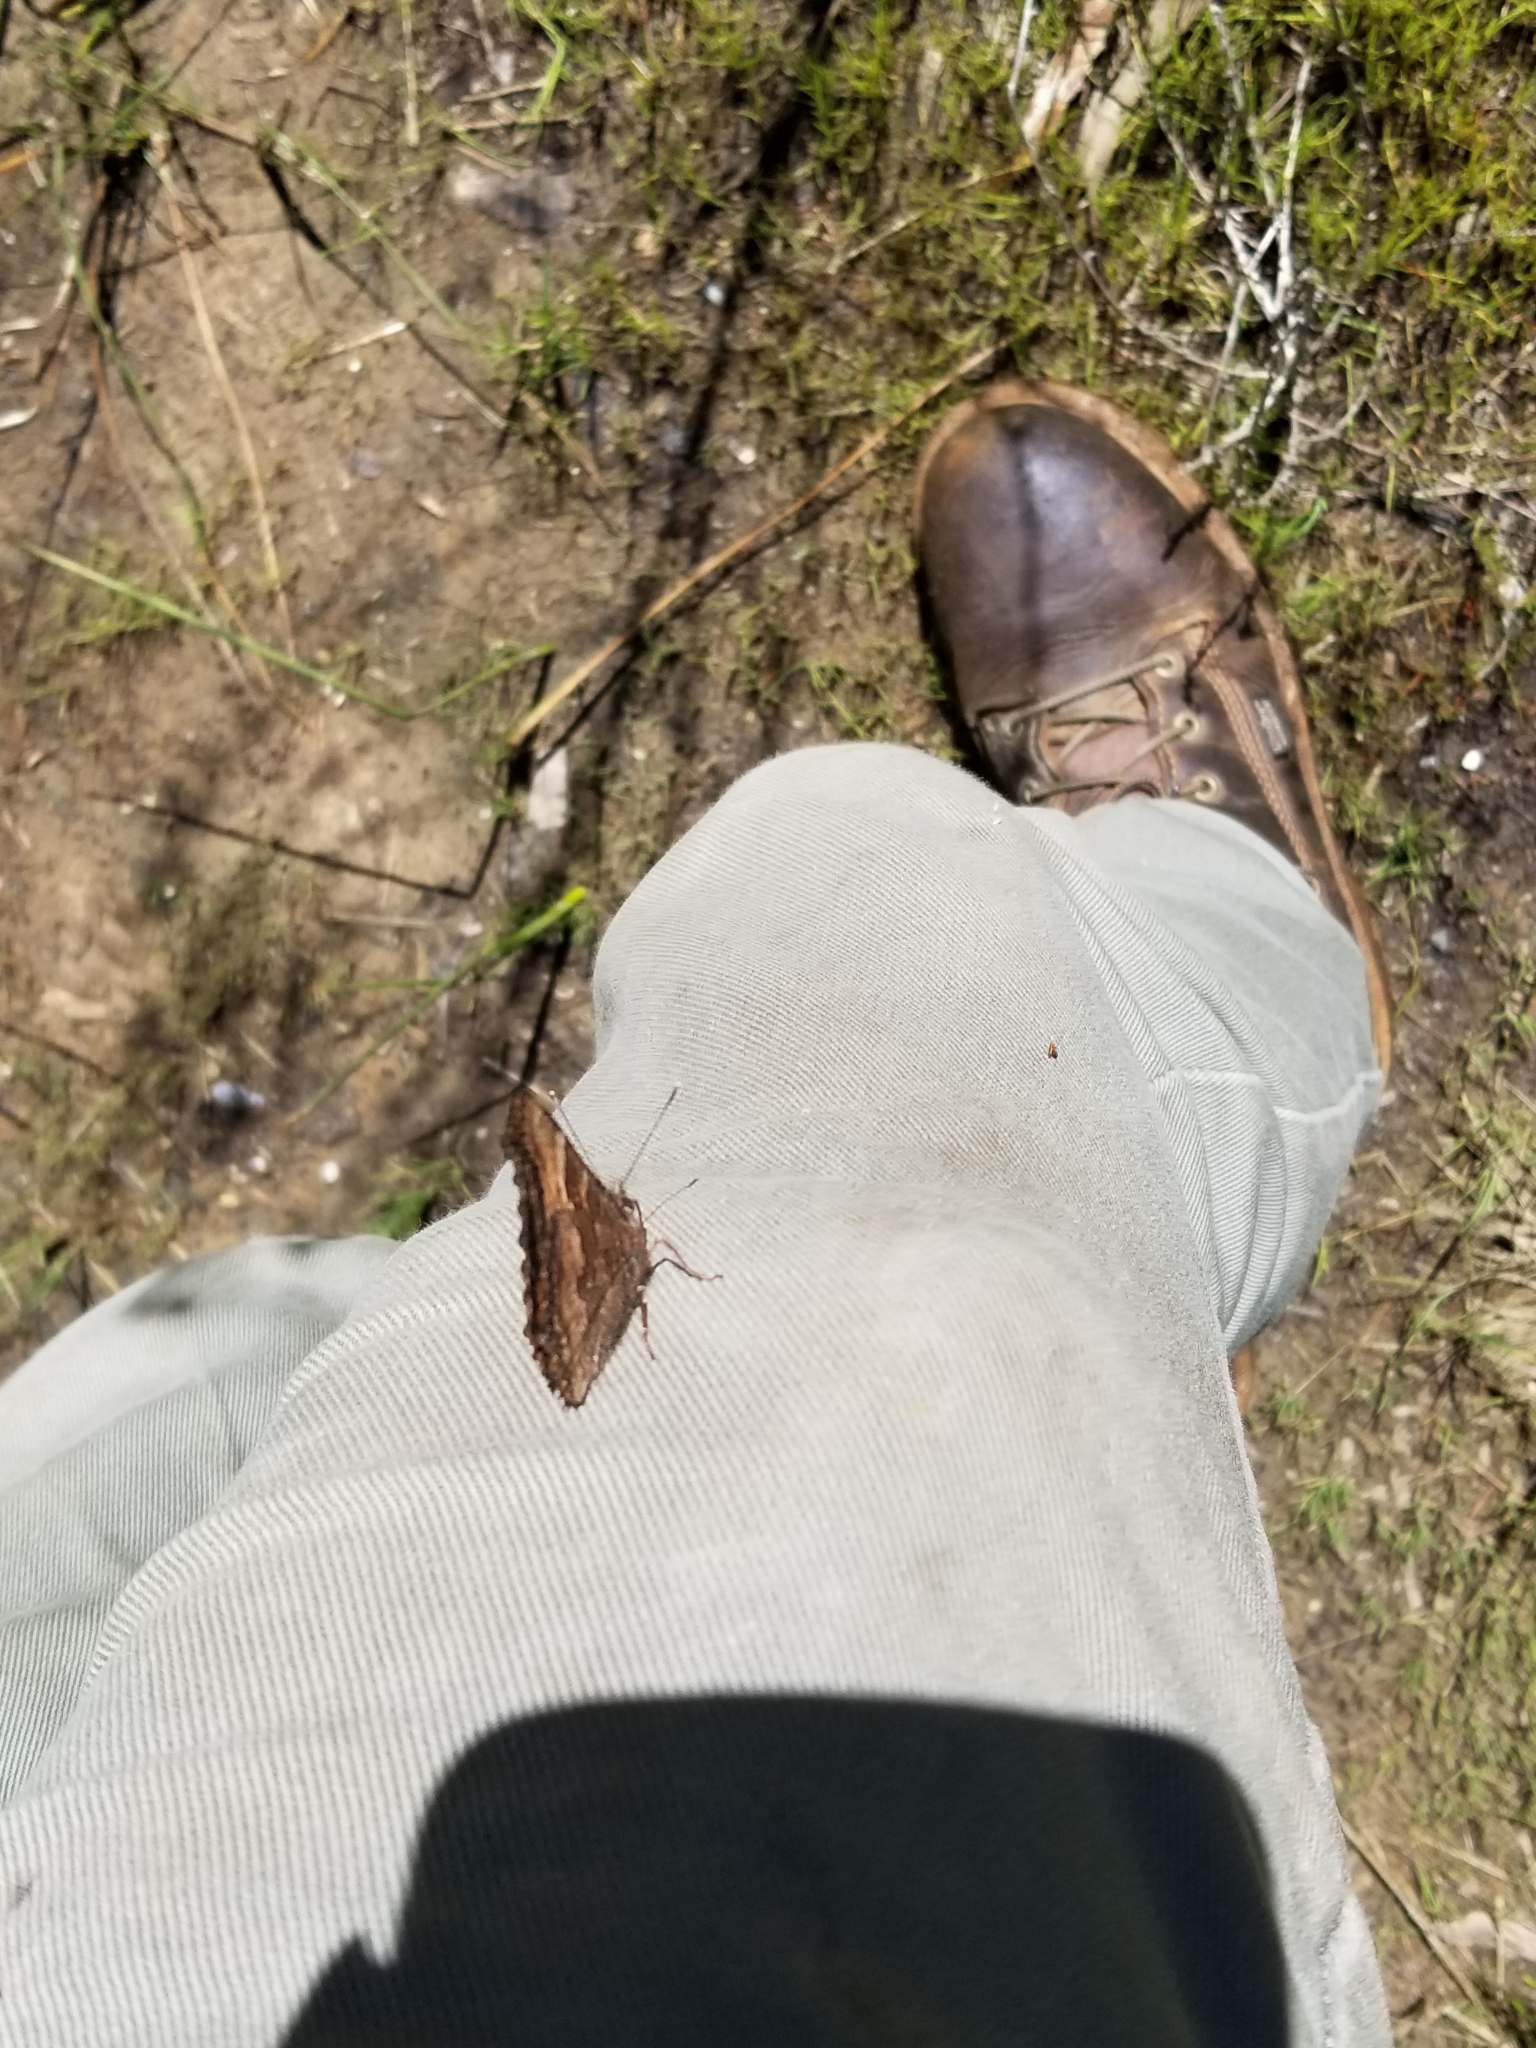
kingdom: Animalia
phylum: Arthropoda
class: Insecta
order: Lepidoptera
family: Nymphalidae
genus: Nymphalis
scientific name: Nymphalis californica
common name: California tortoiseshell
